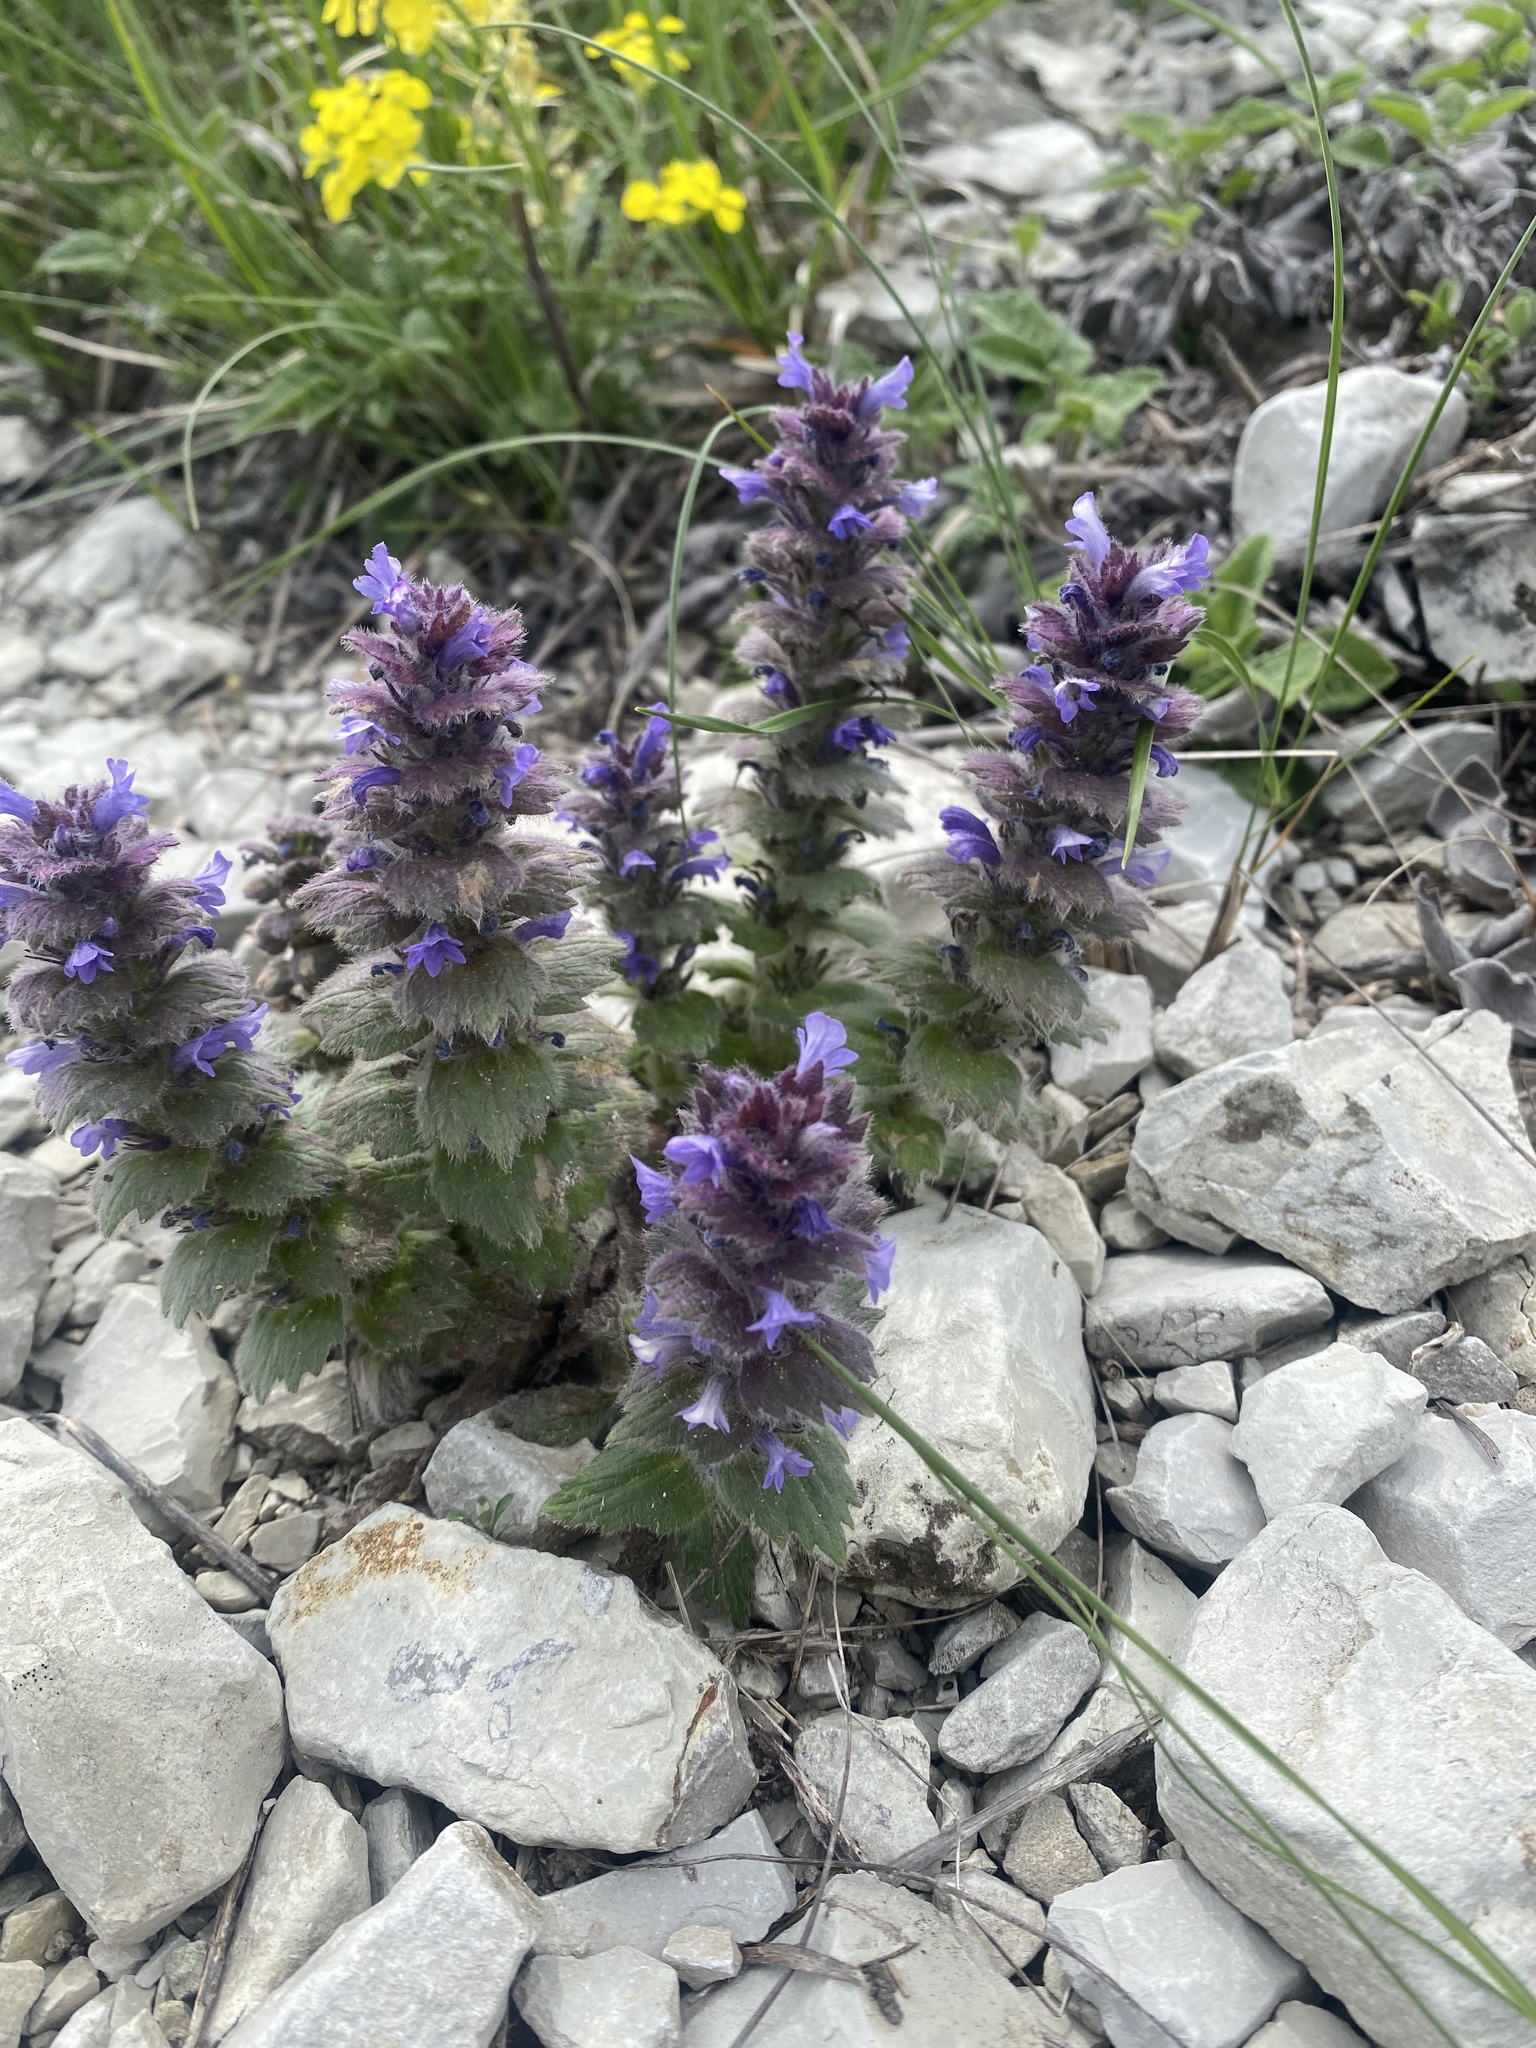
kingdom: Plantae
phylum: Tracheophyta
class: Magnoliopsida
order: Lamiales
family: Lamiaceae
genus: Ajuga
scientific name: Ajuga orientalis
